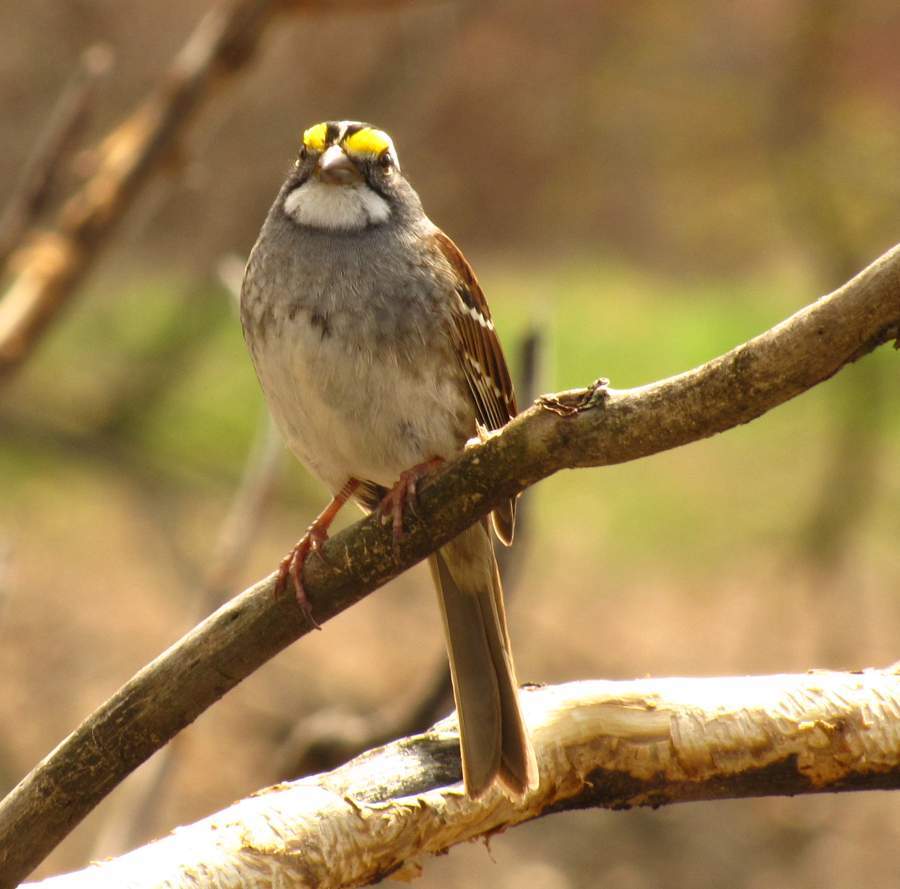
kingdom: Animalia
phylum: Chordata
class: Aves
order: Passeriformes
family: Passerellidae
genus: Zonotrichia
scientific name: Zonotrichia albicollis
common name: White-throated sparrow
